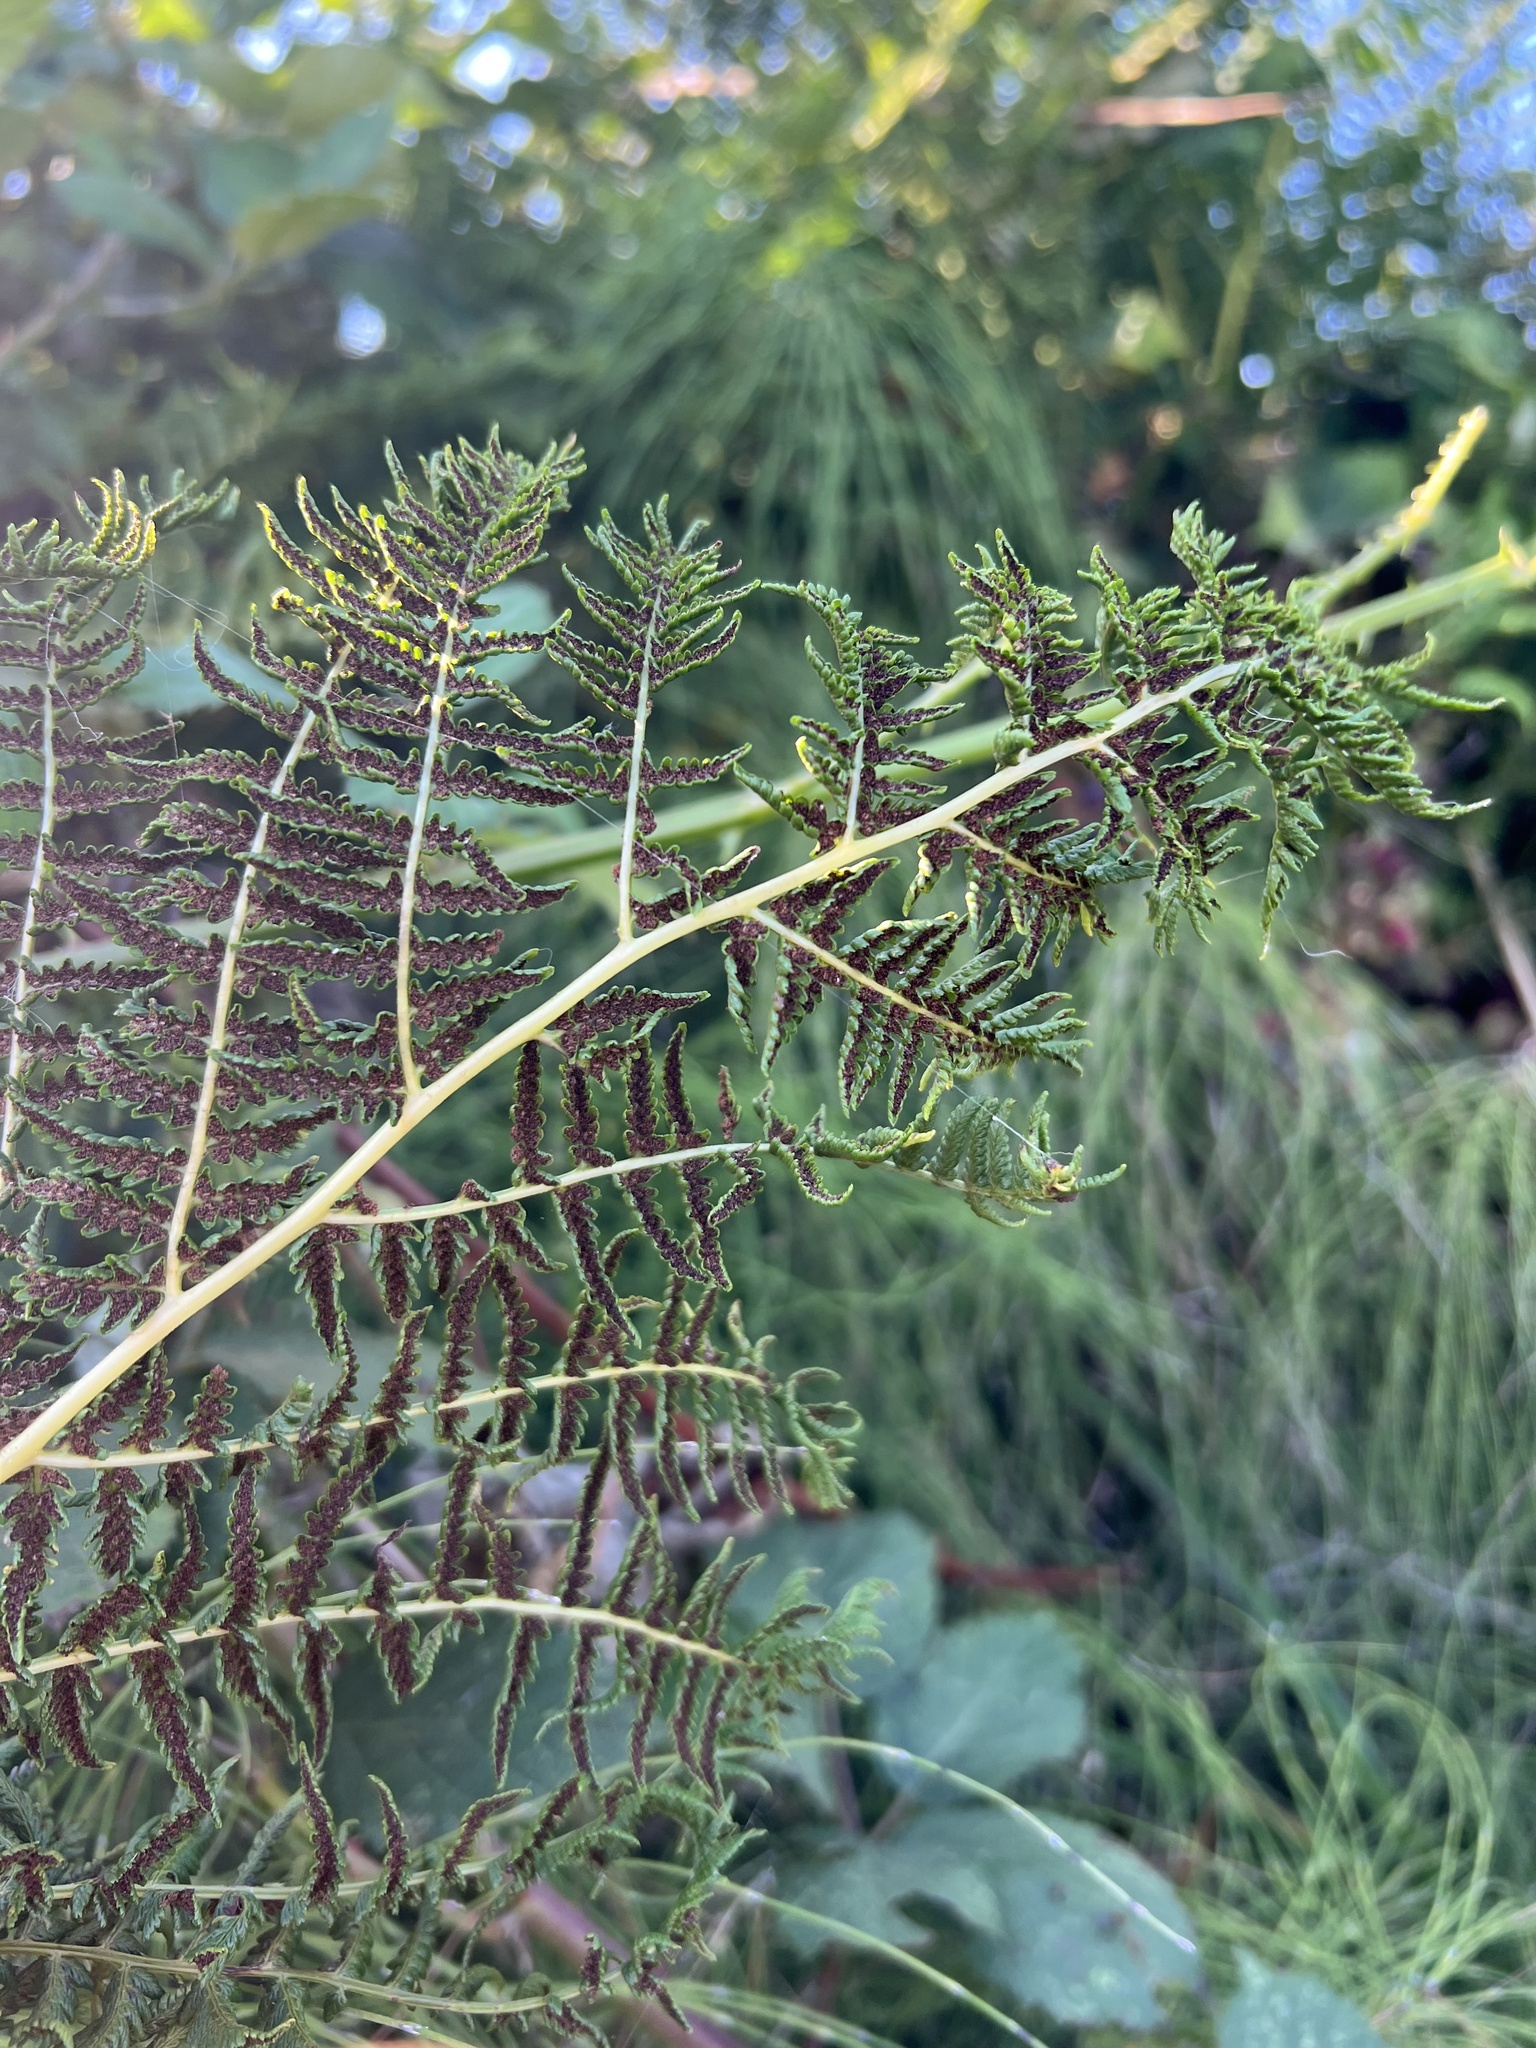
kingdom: Plantae
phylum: Tracheophyta
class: Polypodiopsida
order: Polypodiales
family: Athyriaceae
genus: Athyrium
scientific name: Athyrium cyclosorum
